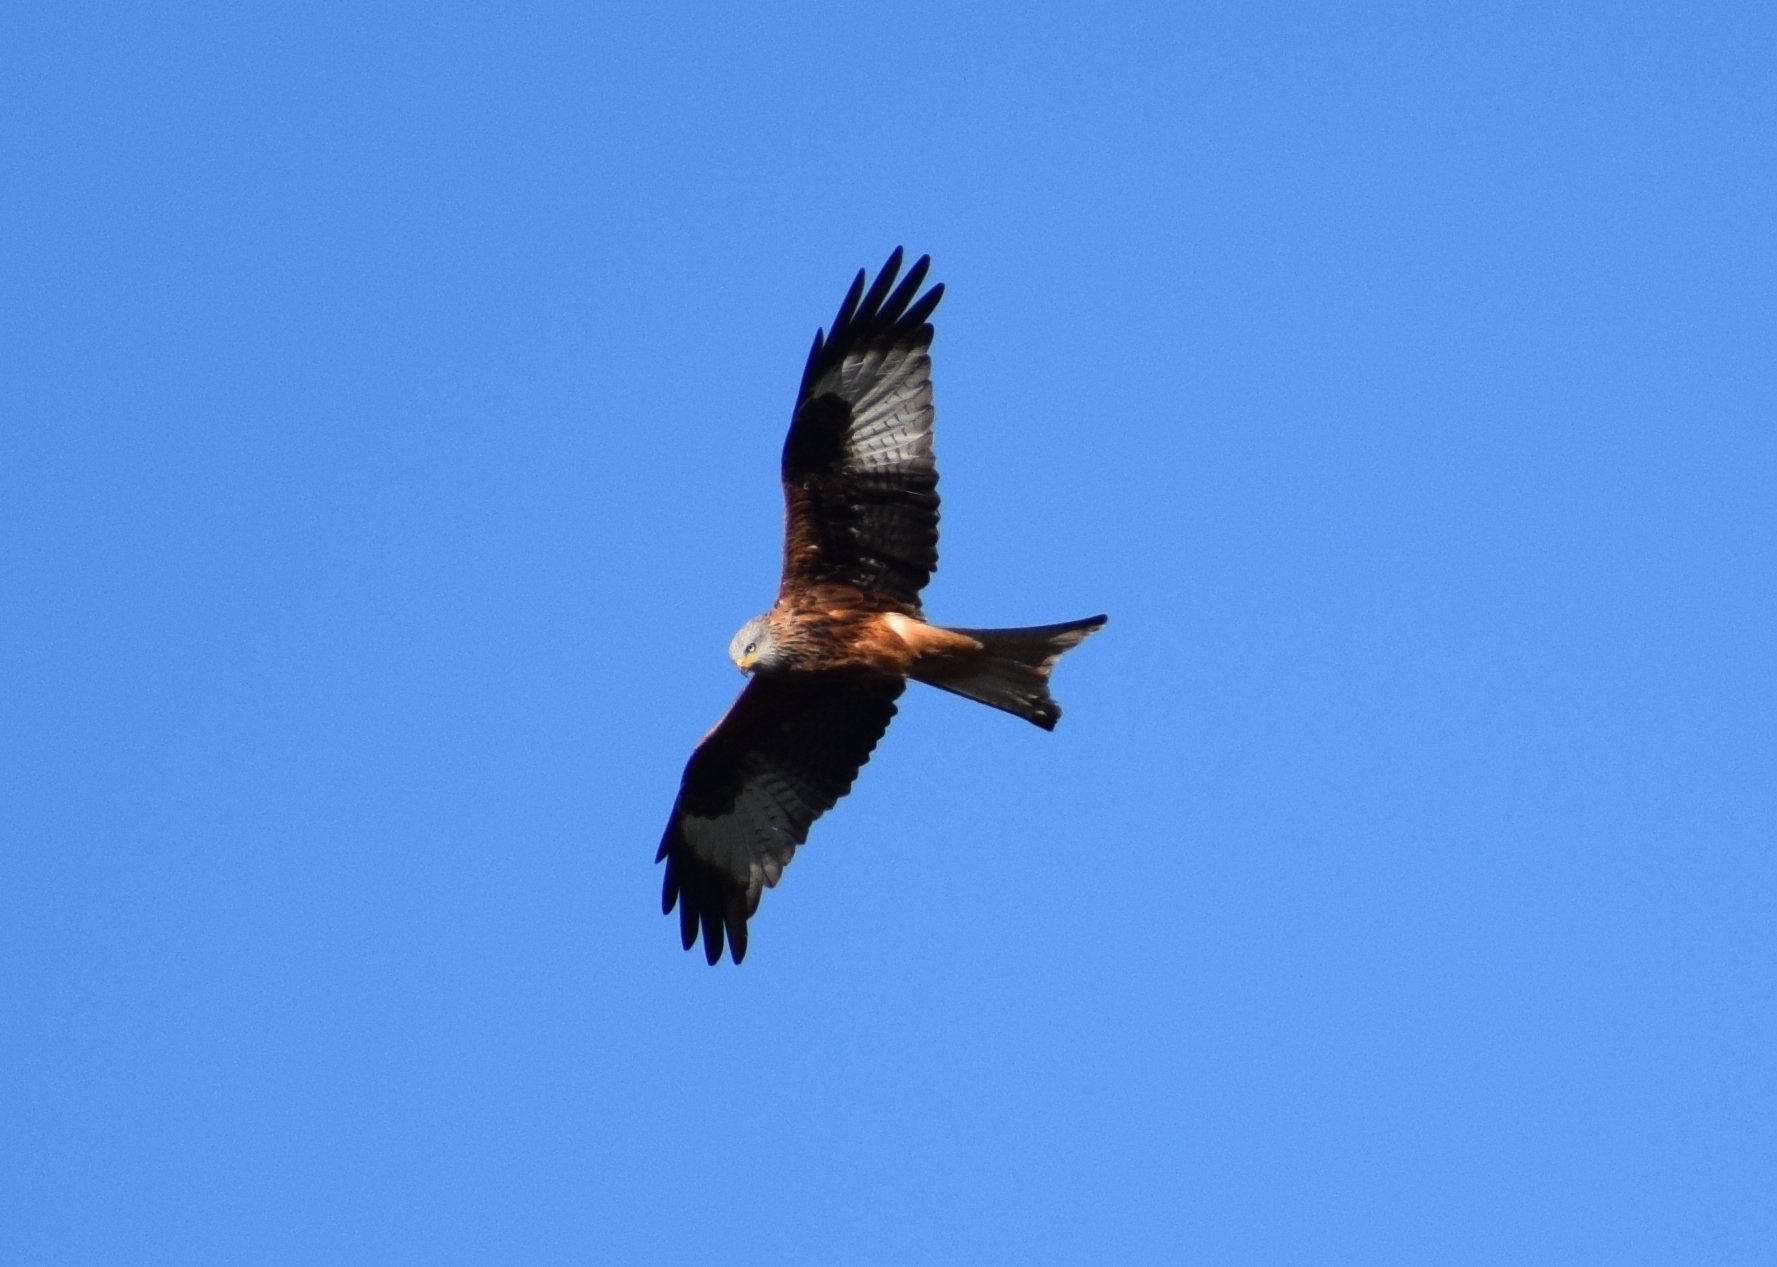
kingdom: Animalia
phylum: Chordata
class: Aves
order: Accipitriformes
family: Accipitridae
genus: Milvus
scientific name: Milvus milvus
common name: Red kite
